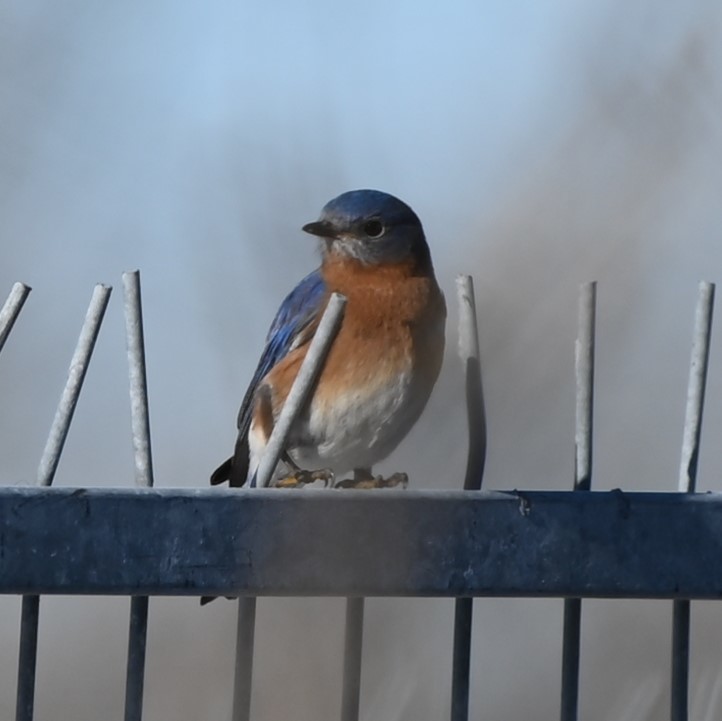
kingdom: Animalia
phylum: Chordata
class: Aves
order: Passeriformes
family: Turdidae
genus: Sialia
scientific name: Sialia sialis
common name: Eastern bluebird
